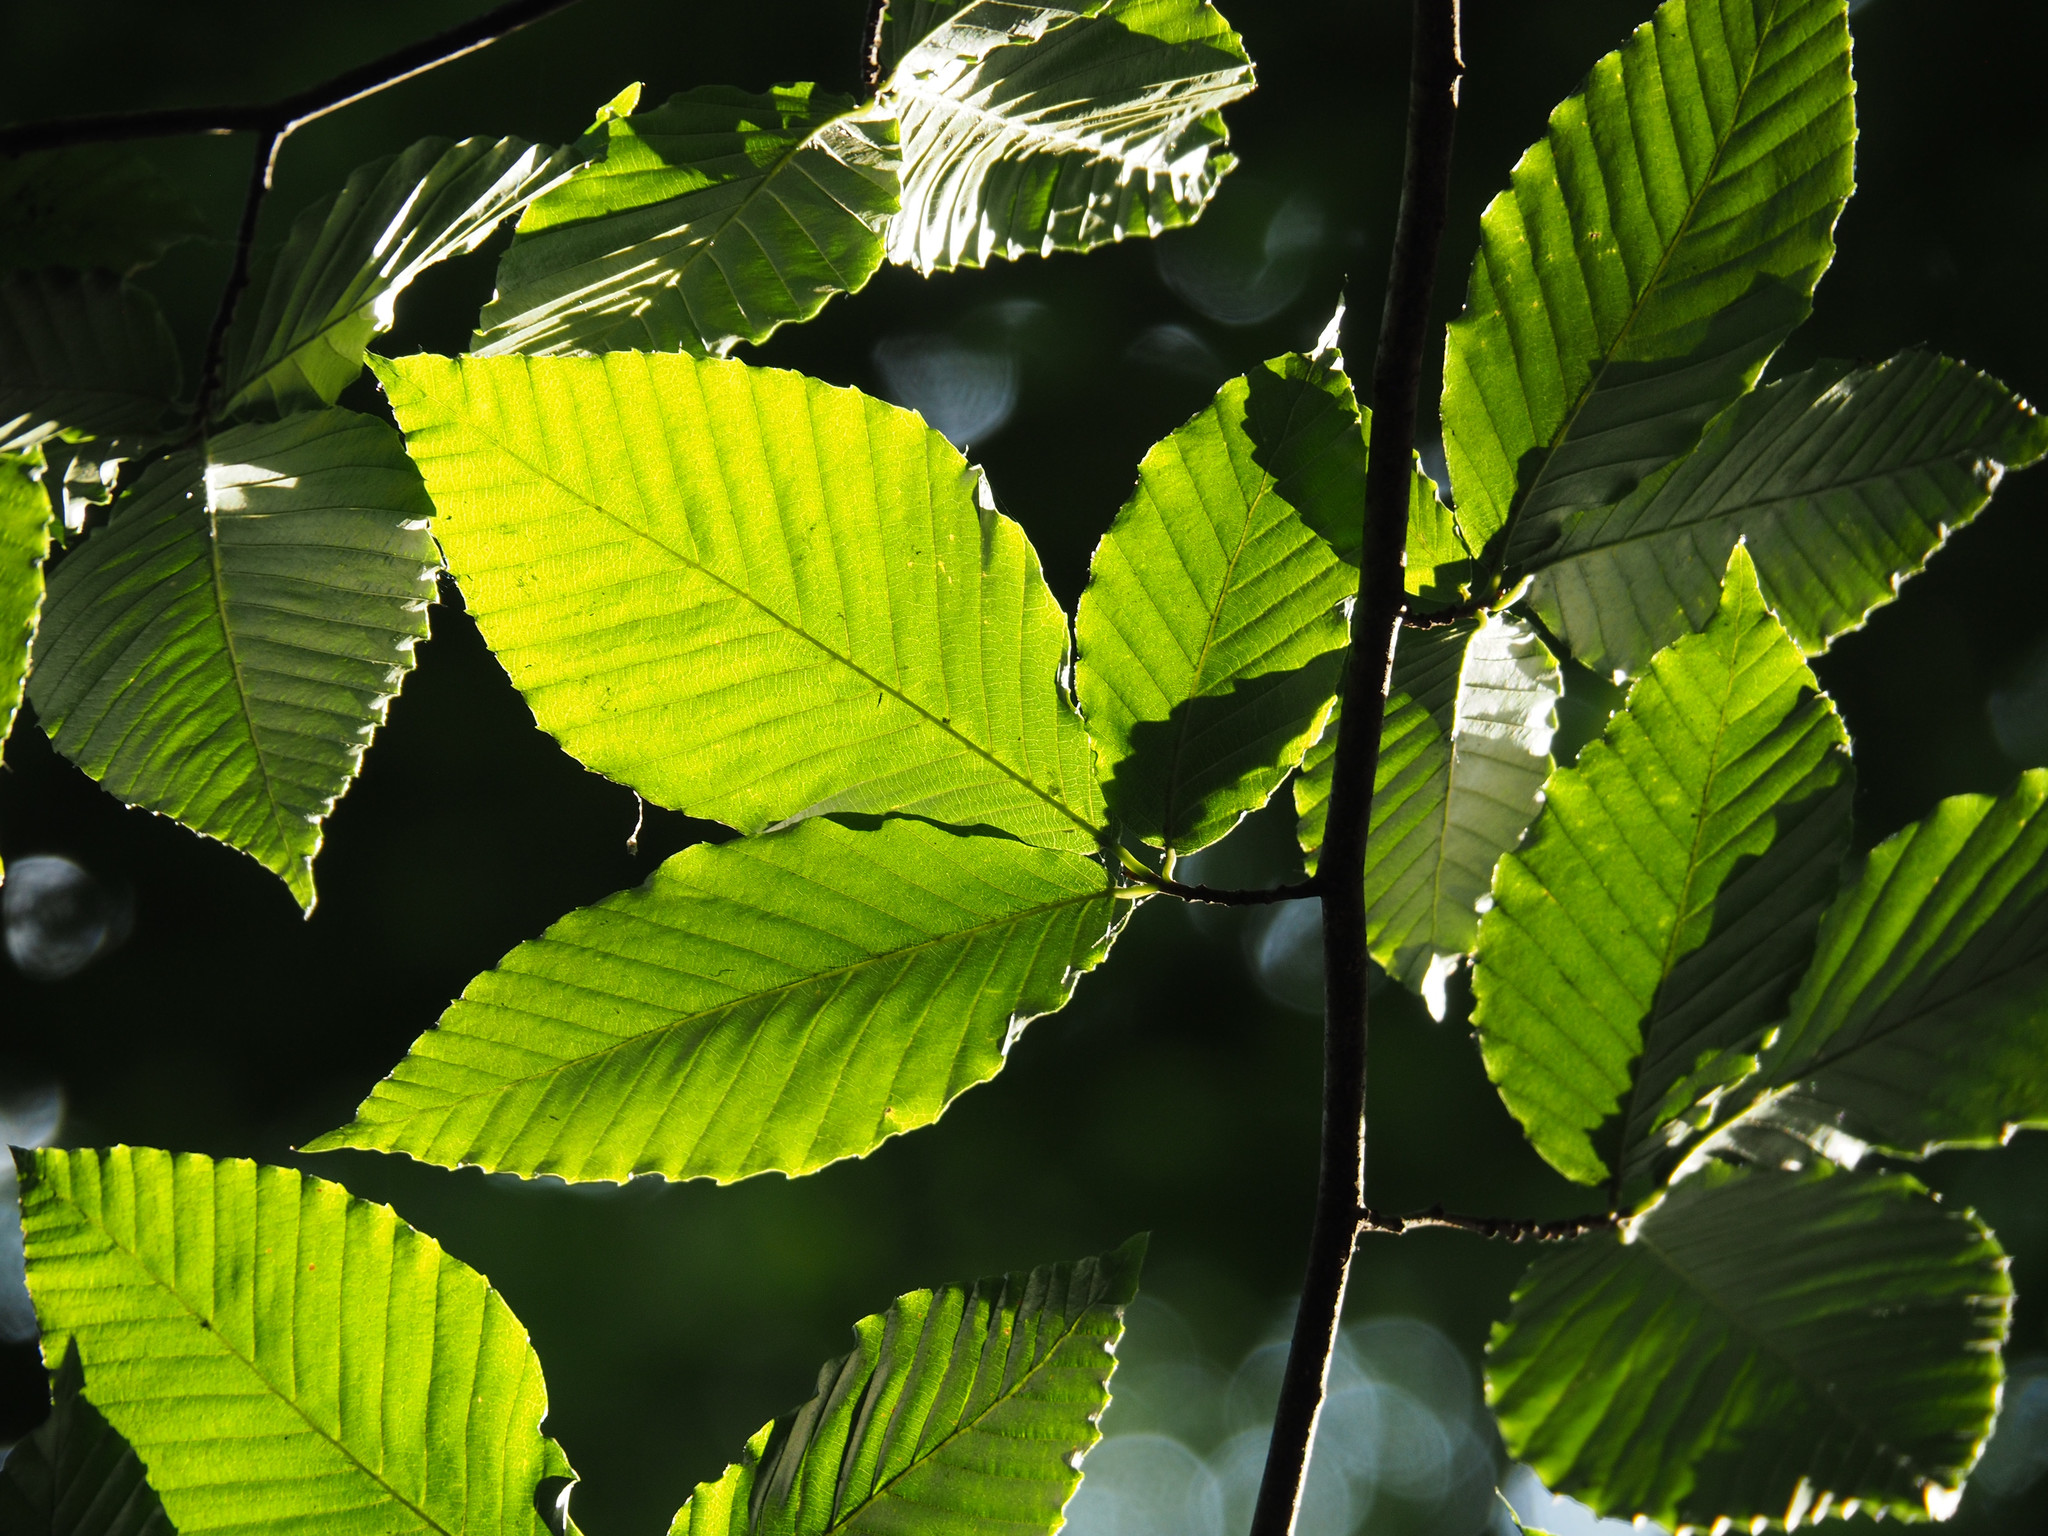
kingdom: Plantae
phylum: Tracheophyta
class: Magnoliopsida
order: Fagales
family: Fagaceae
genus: Fagus
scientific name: Fagus grandifolia
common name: American beech
